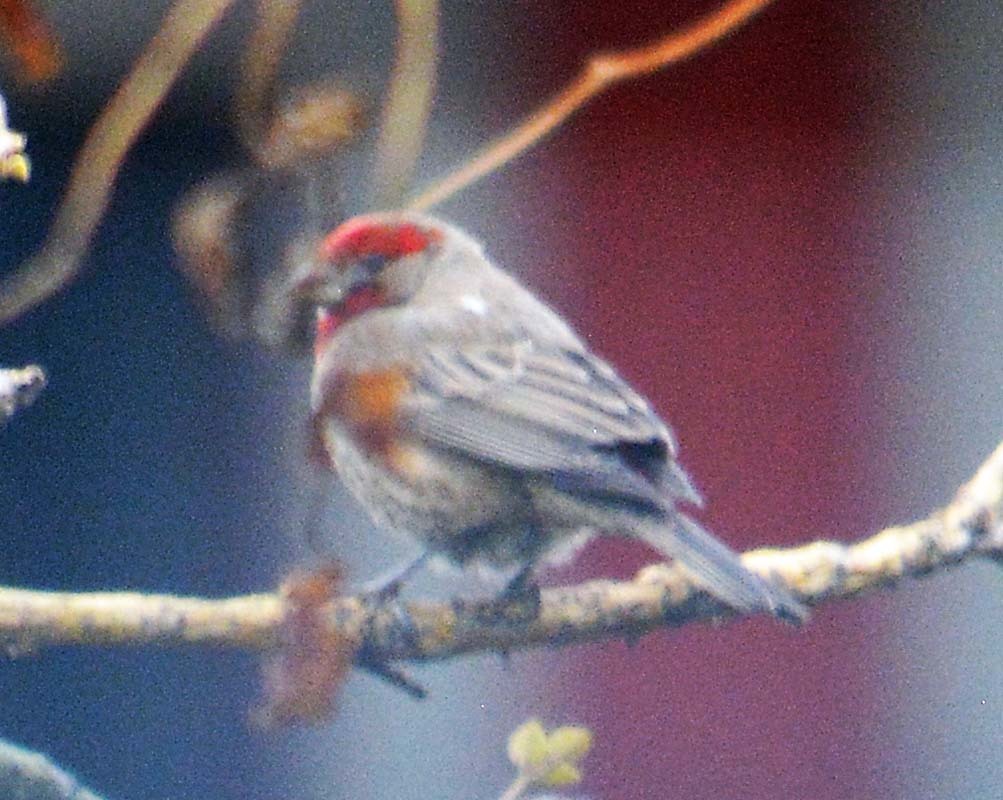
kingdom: Animalia
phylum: Chordata
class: Aves
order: Passeriformes
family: Fringillidae
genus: Haemorhous
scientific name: Haemorhous mexicanus
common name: House finch
